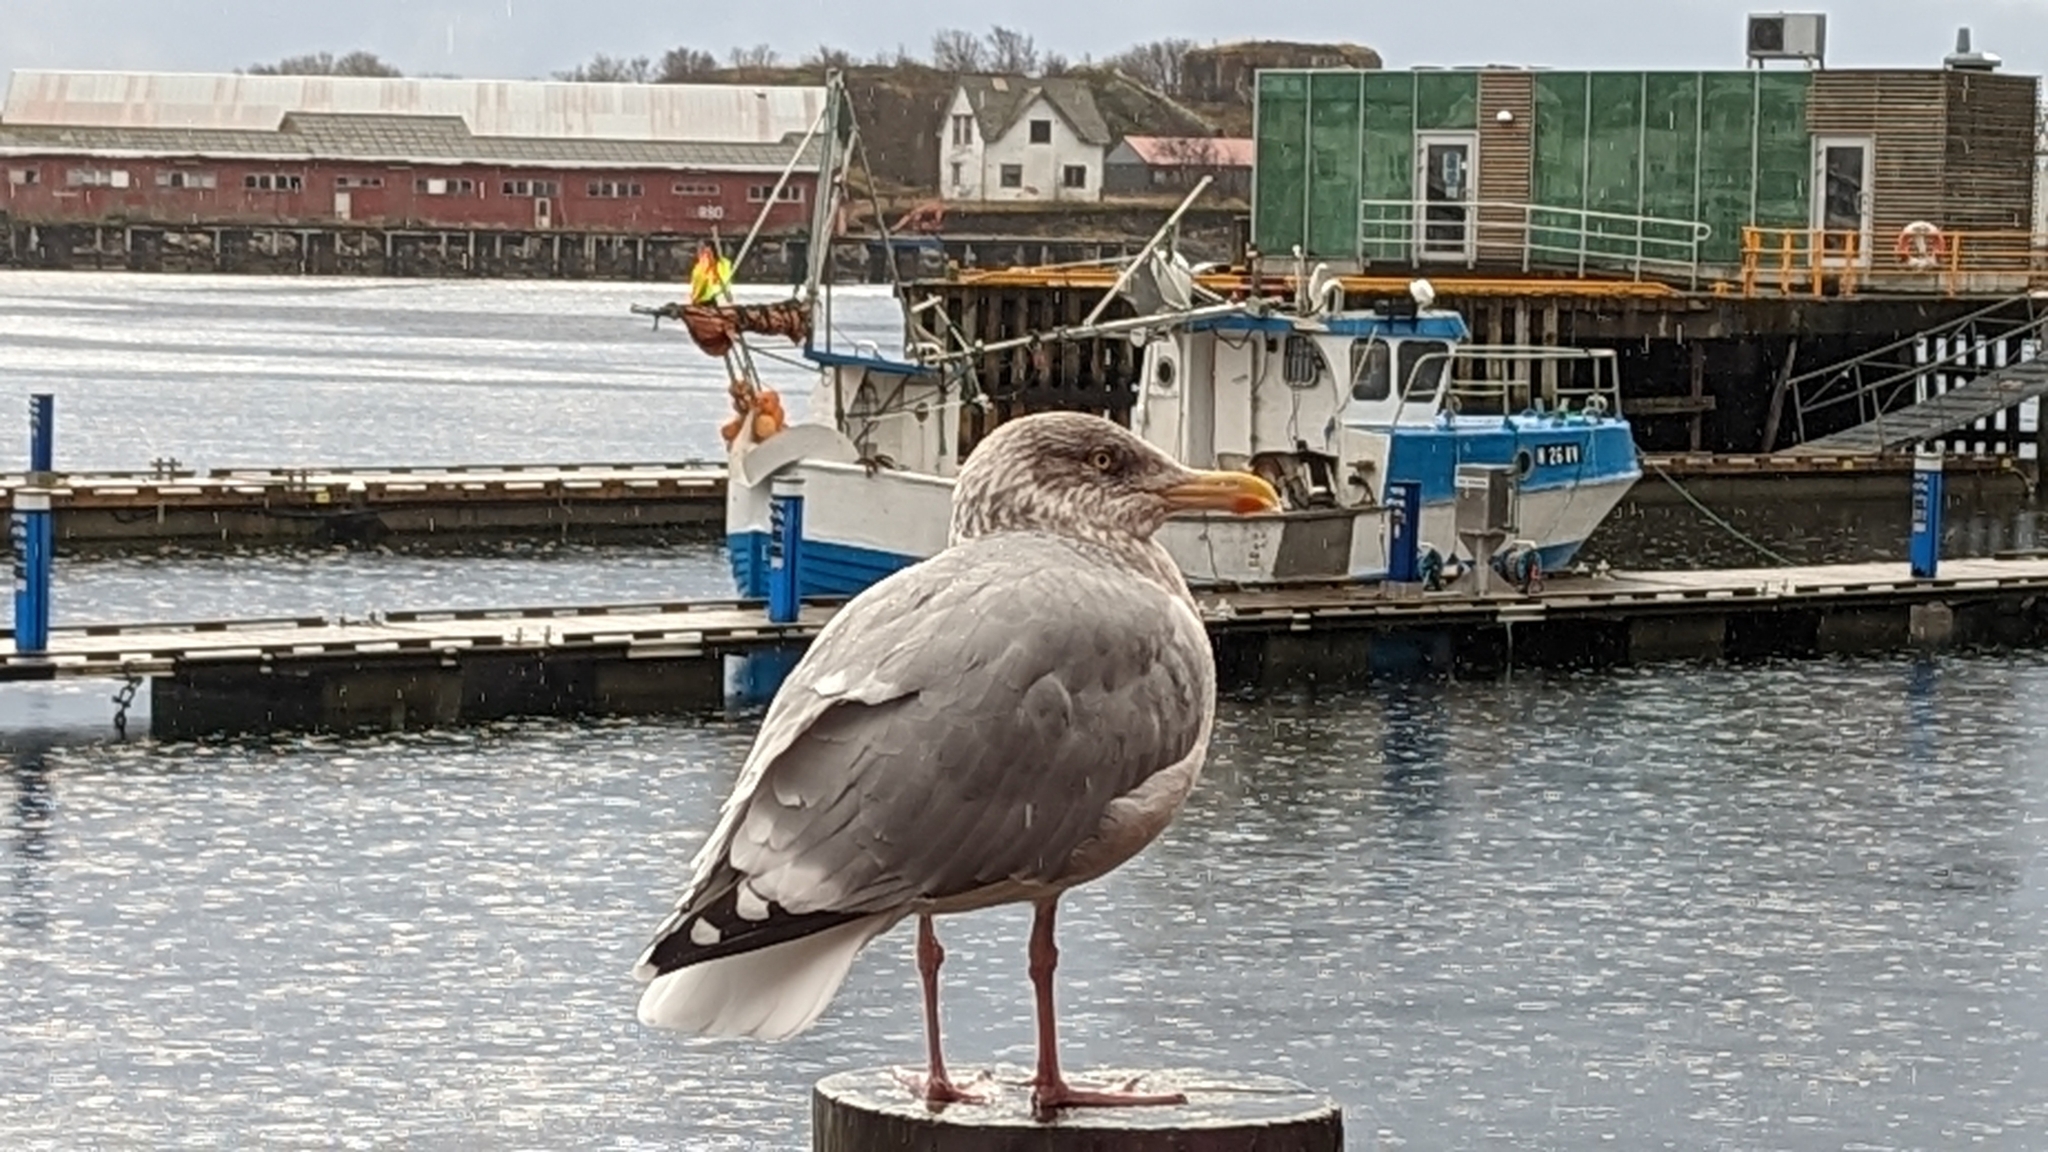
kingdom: Animalia
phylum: Chordata
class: Aves
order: Charadriiformes
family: Laridae
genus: Larus
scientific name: Larus argentatus
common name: Herring gull
